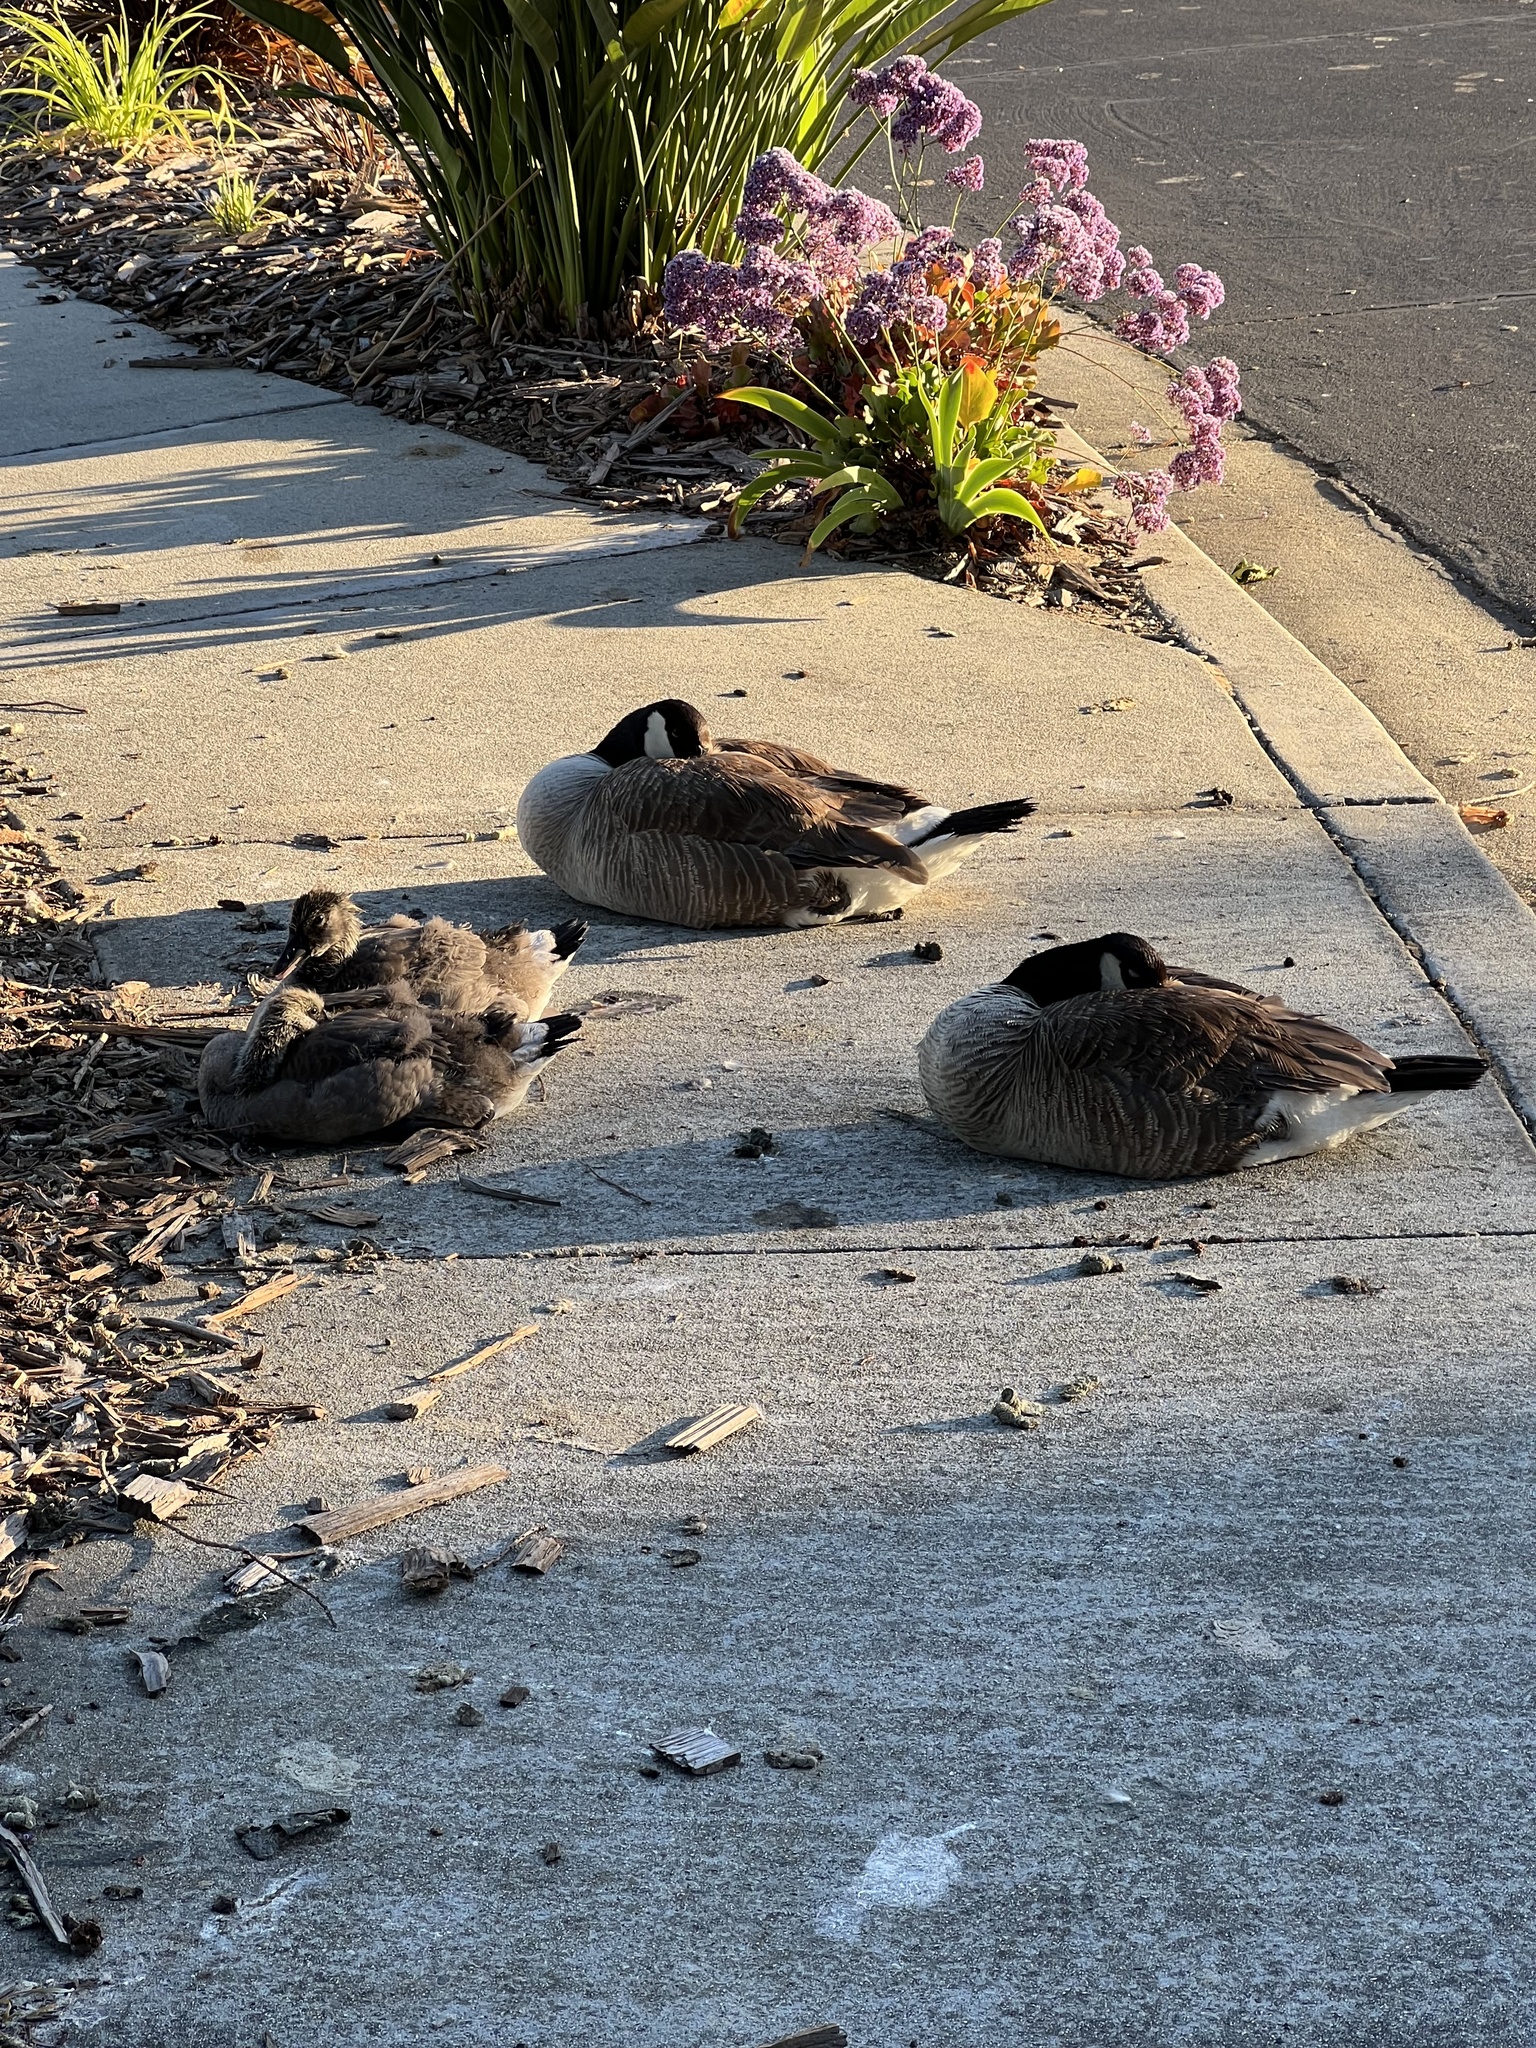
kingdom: Animalia
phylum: Chordata
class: Aves
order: Anseriformes
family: Anatidae
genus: Branta
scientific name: Branta canadensis
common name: Canada goose
